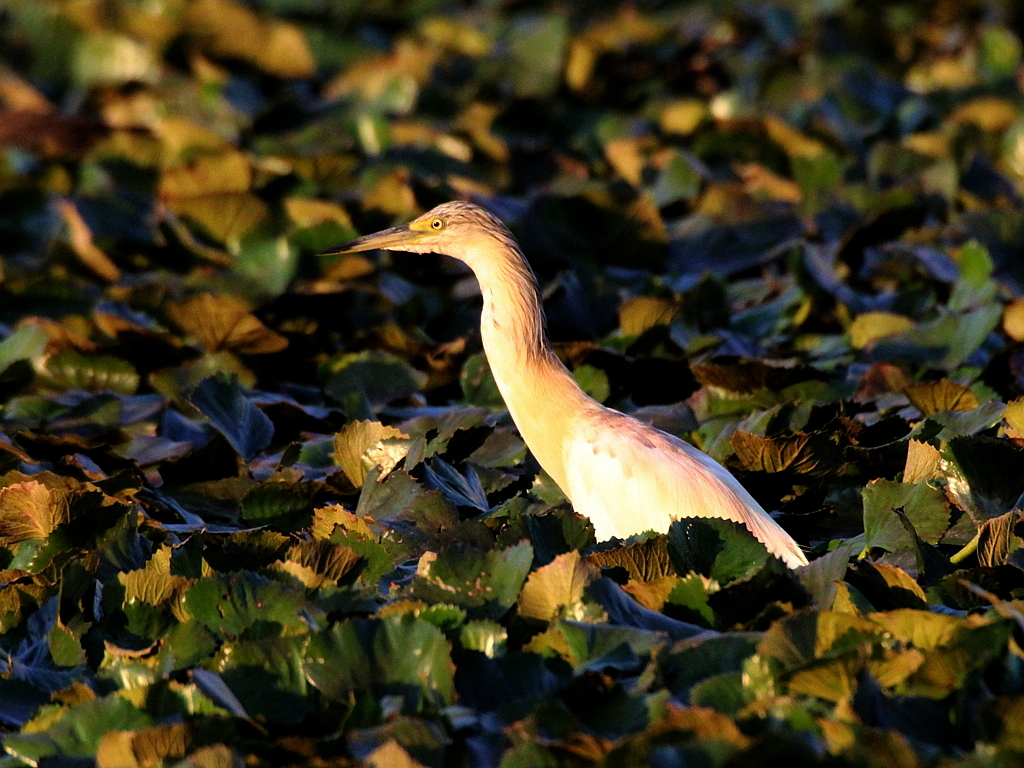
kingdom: Animalia
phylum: Chordata
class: Aves
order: Pelecaniformes
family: Ardeidae
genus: Ardeola
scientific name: Ardeola ralloides
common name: Squacco heron
